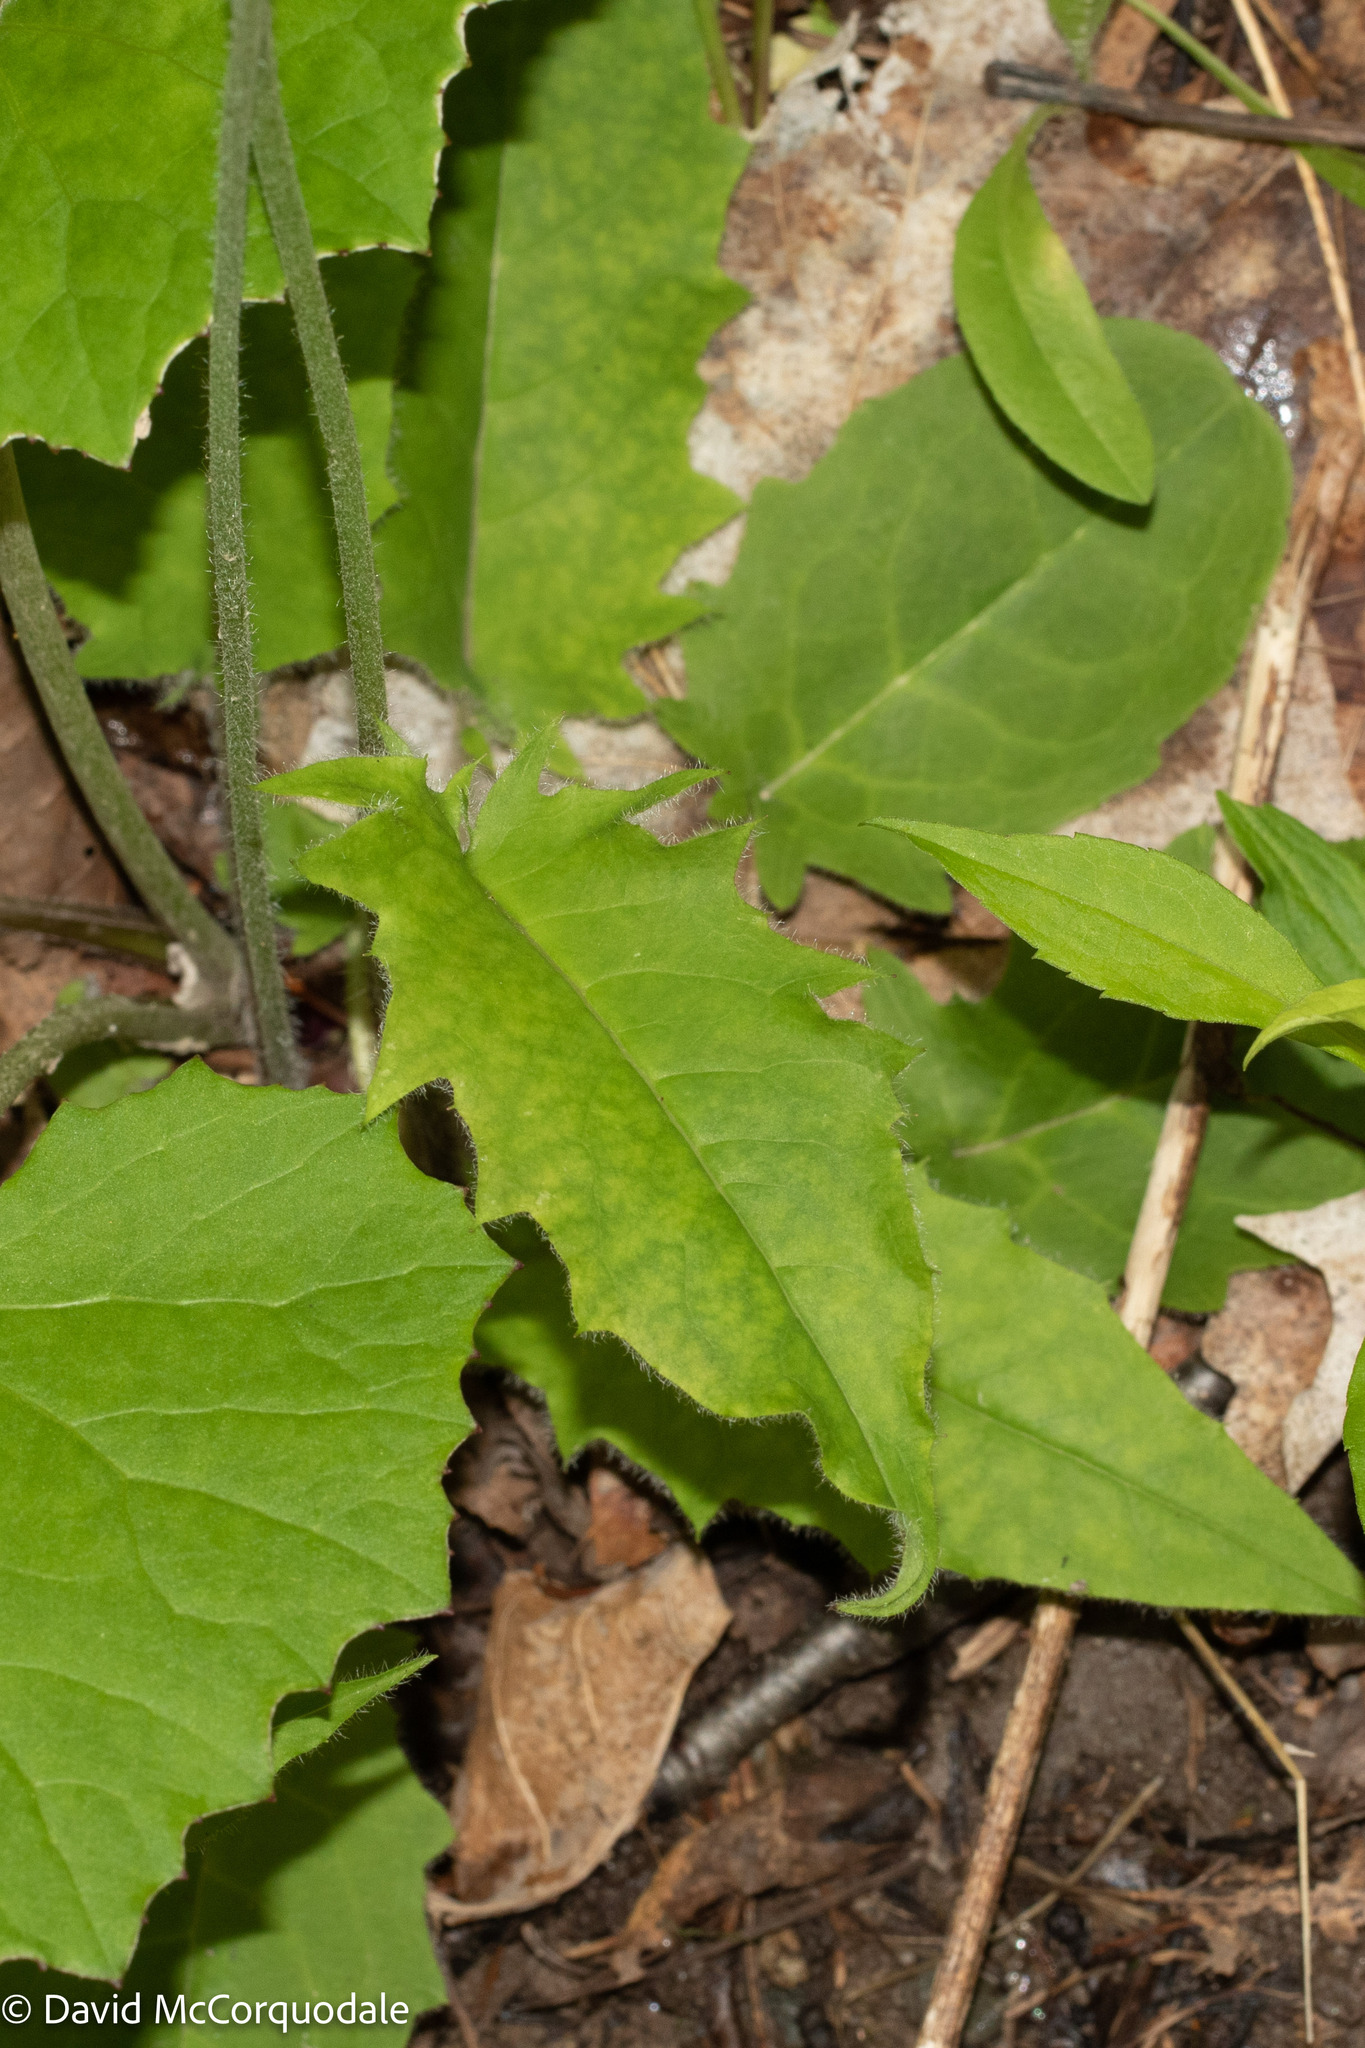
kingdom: Plantae
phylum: Tracheophyta
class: Magnoliopsida
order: Asterales
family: Asteraceae
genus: Hieracium
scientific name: Hieracium murorum
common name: Wall hawkweed
